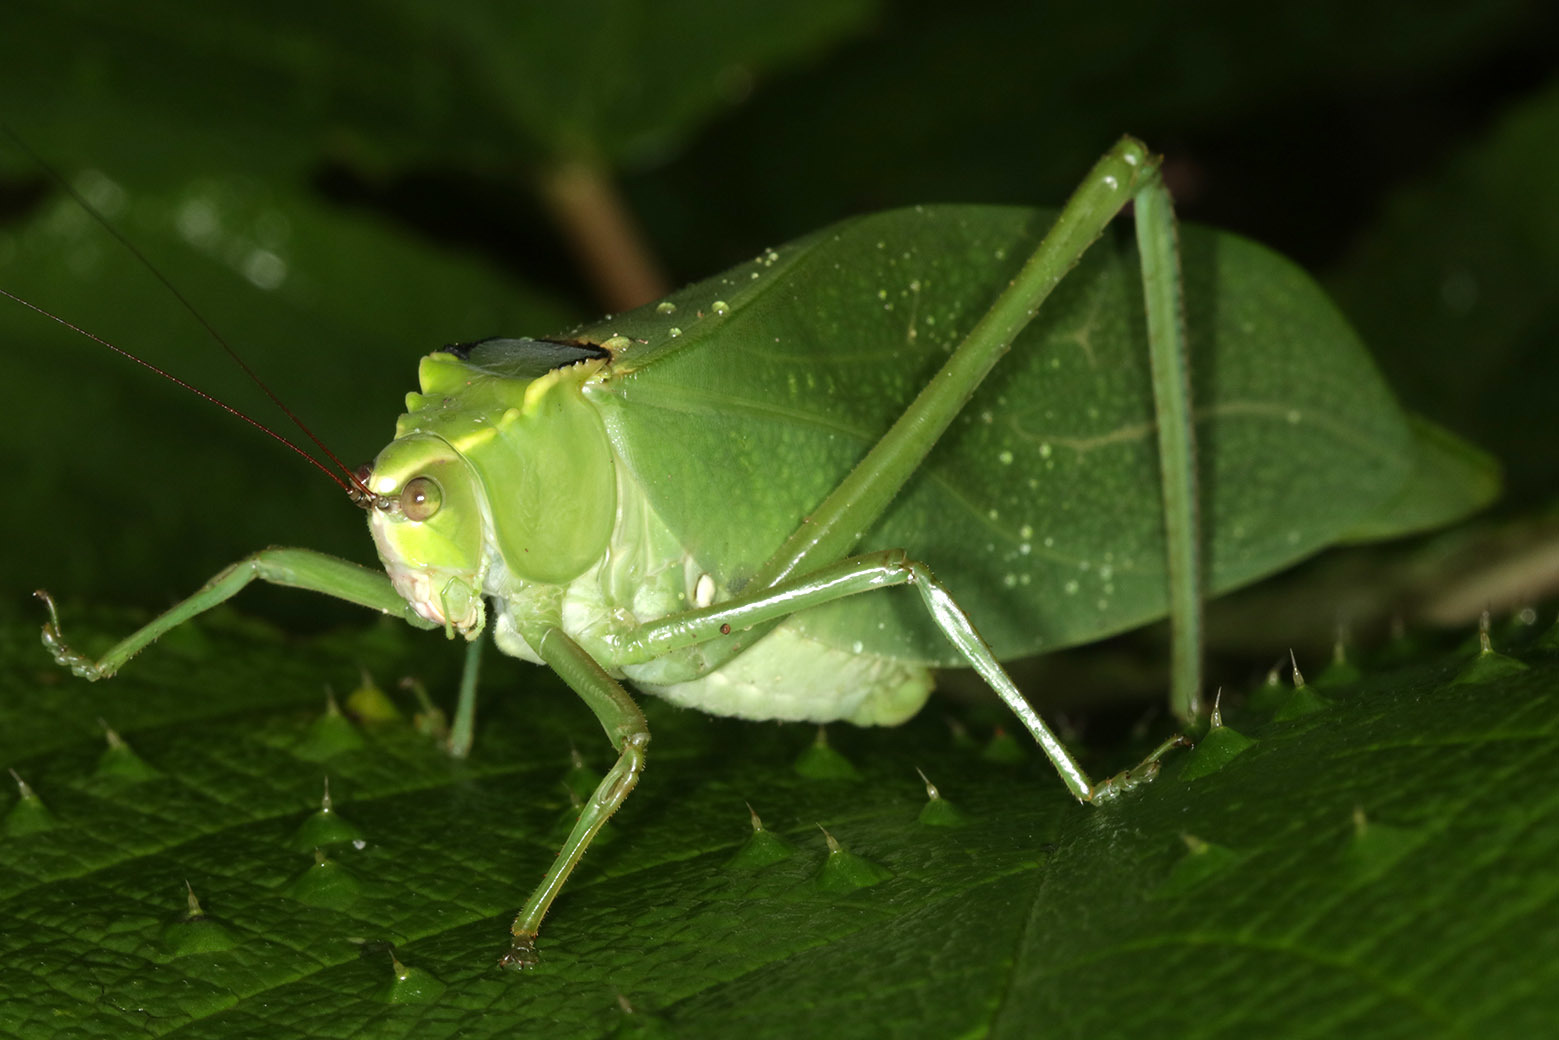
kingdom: Animalia
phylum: Arthropoda
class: Insecta
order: Orthoptera
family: Tettigoniidae
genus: Stilpnochlora
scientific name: Stilpnochlora incisa
